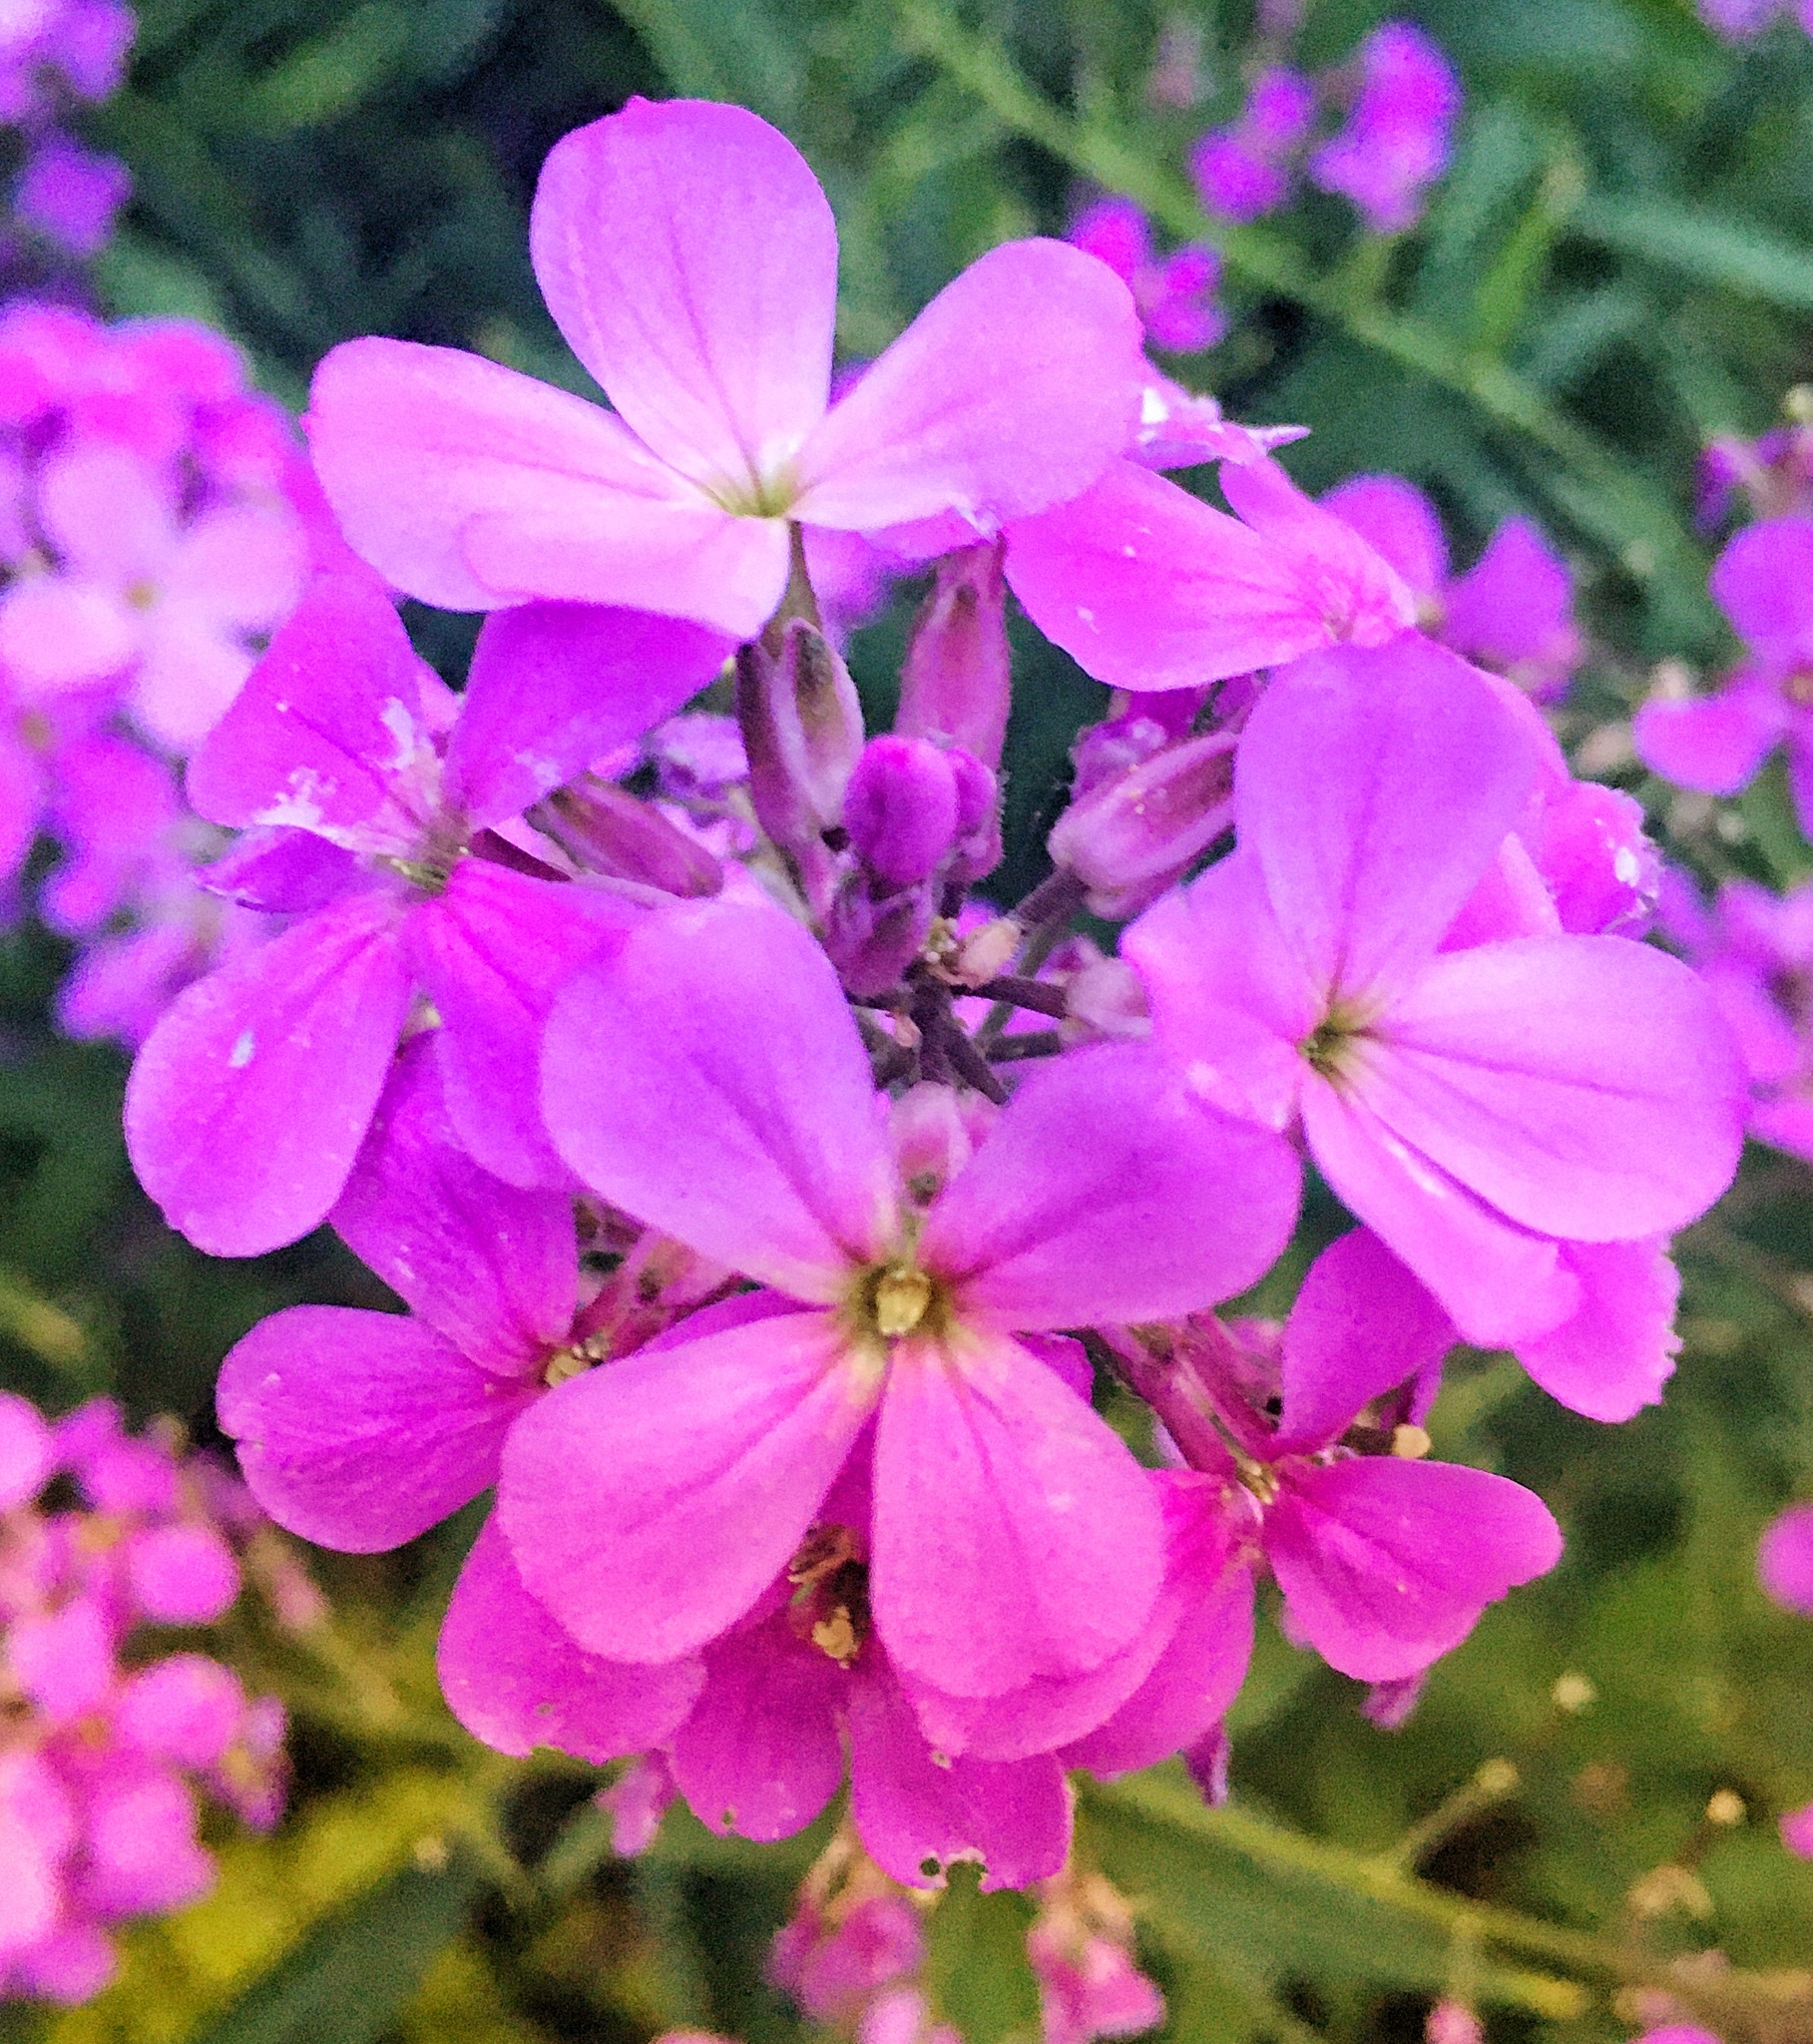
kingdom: Plantae
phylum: Tracheophyta
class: Magnoliopsida
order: Brassicales
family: Brassicaceae
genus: Hesperis
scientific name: Hesperis matronalis
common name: Dame's-violet
